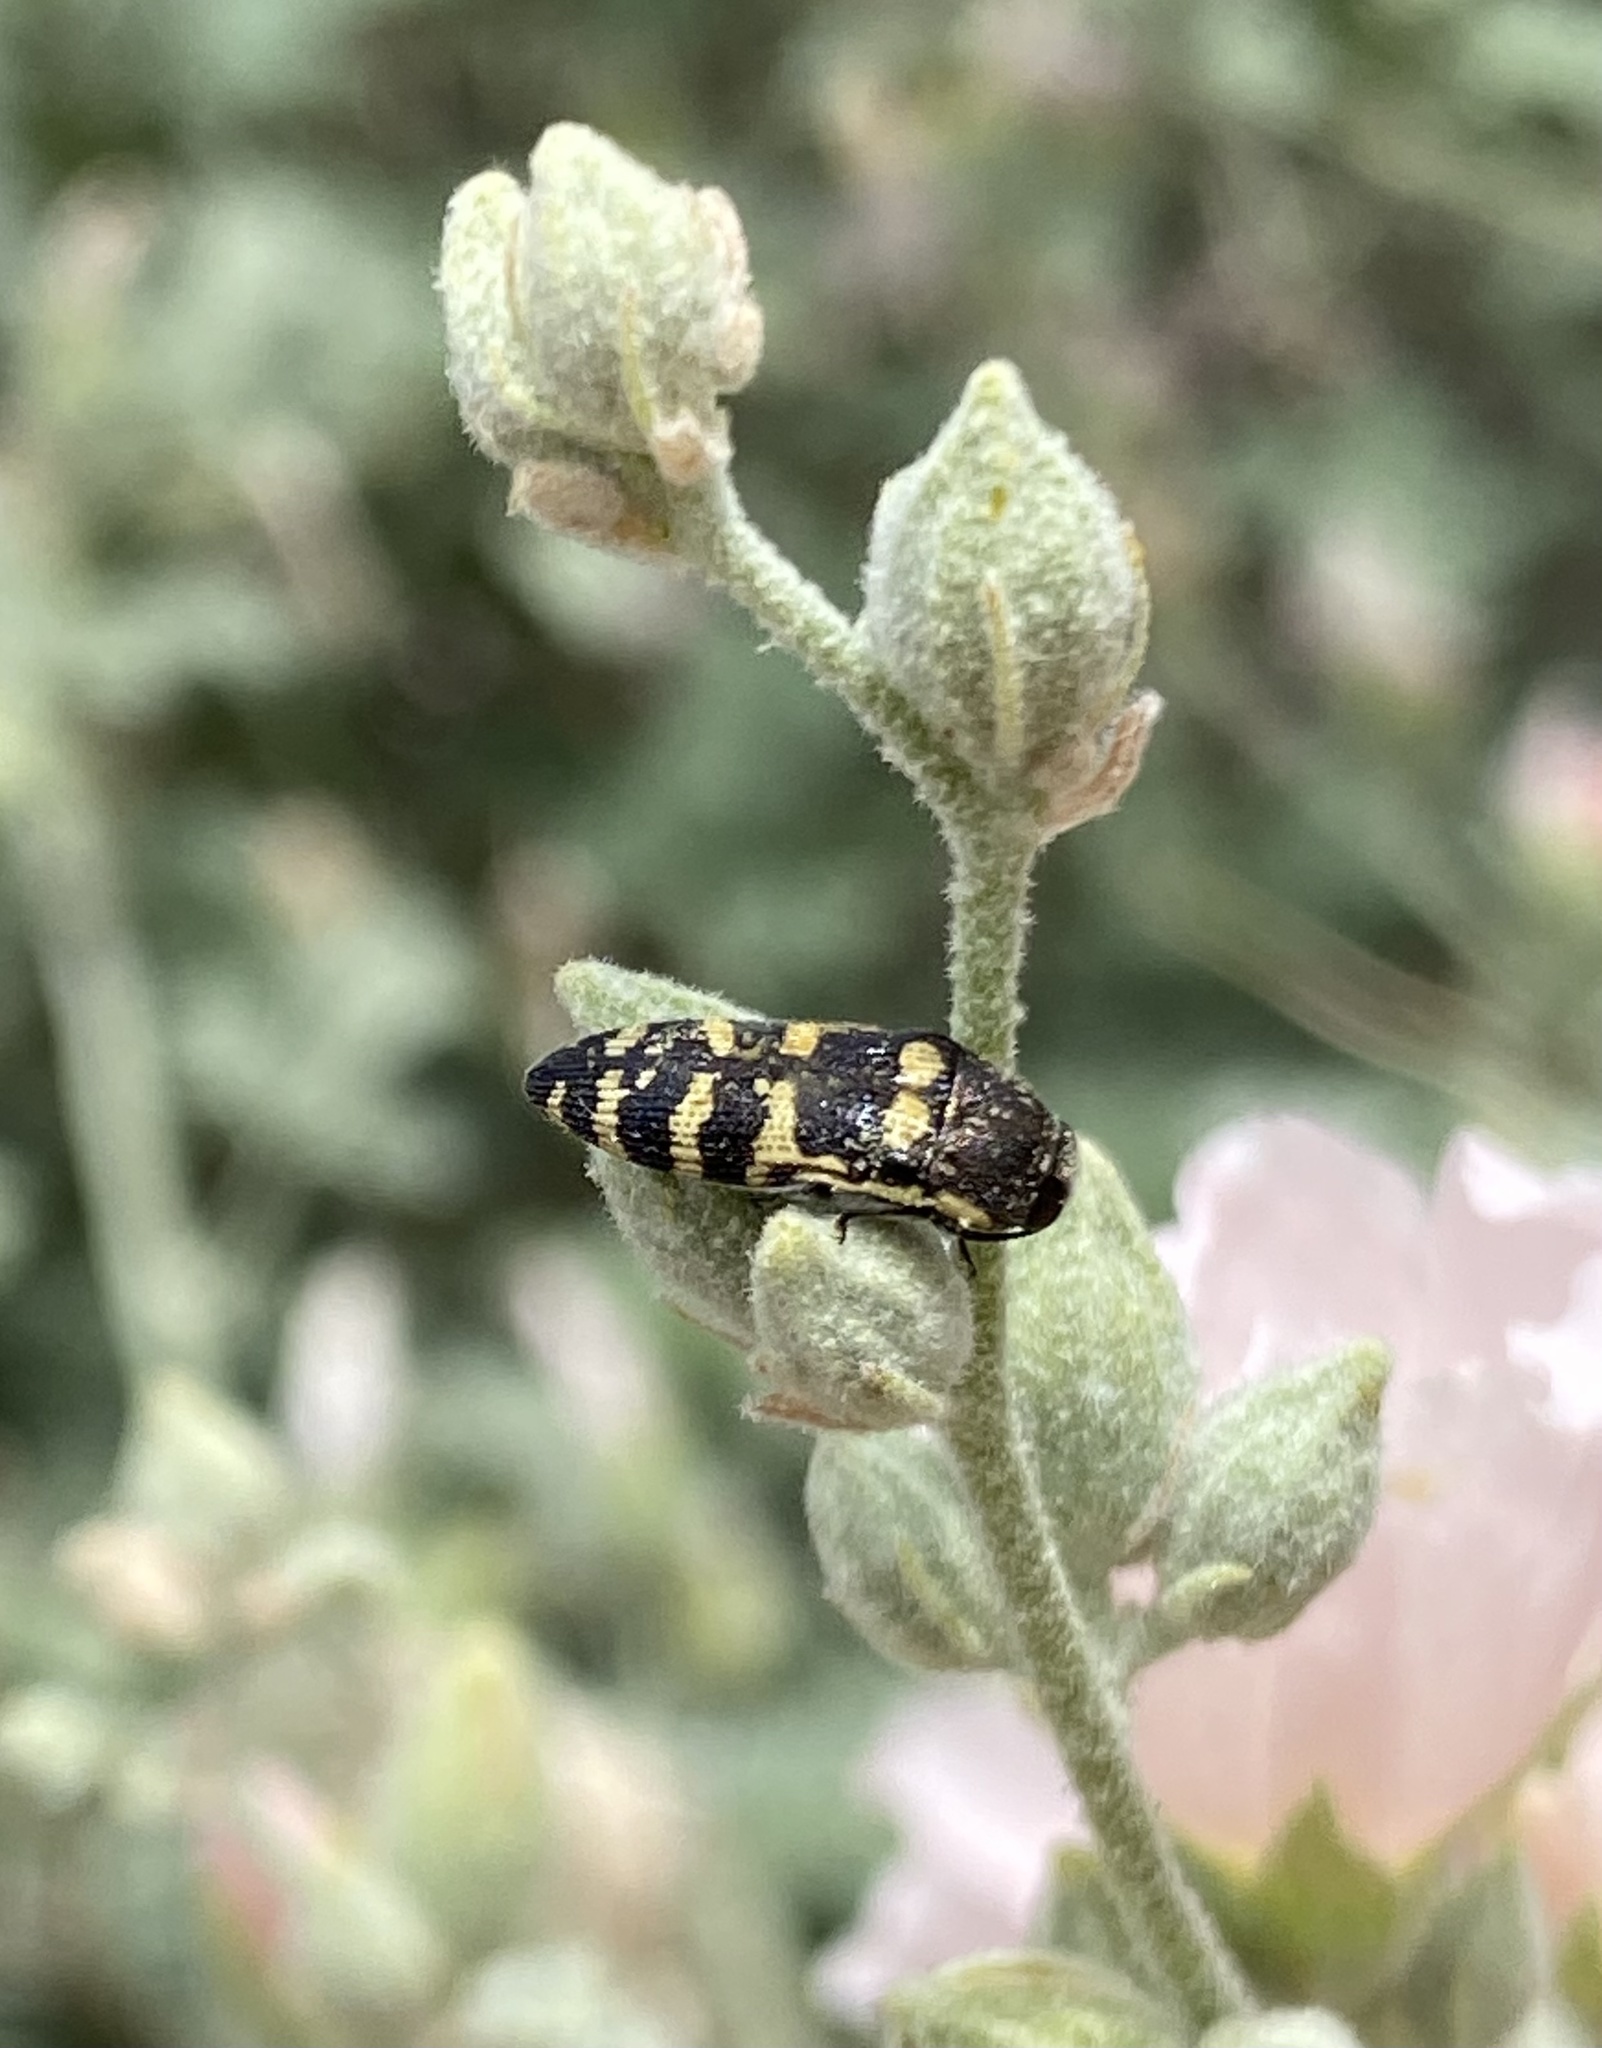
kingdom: Animalia
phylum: Arthropoda
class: Insecta
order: Coleoptera
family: Buprestidae
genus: Acmaeodera
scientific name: Acmaeodera alicia
